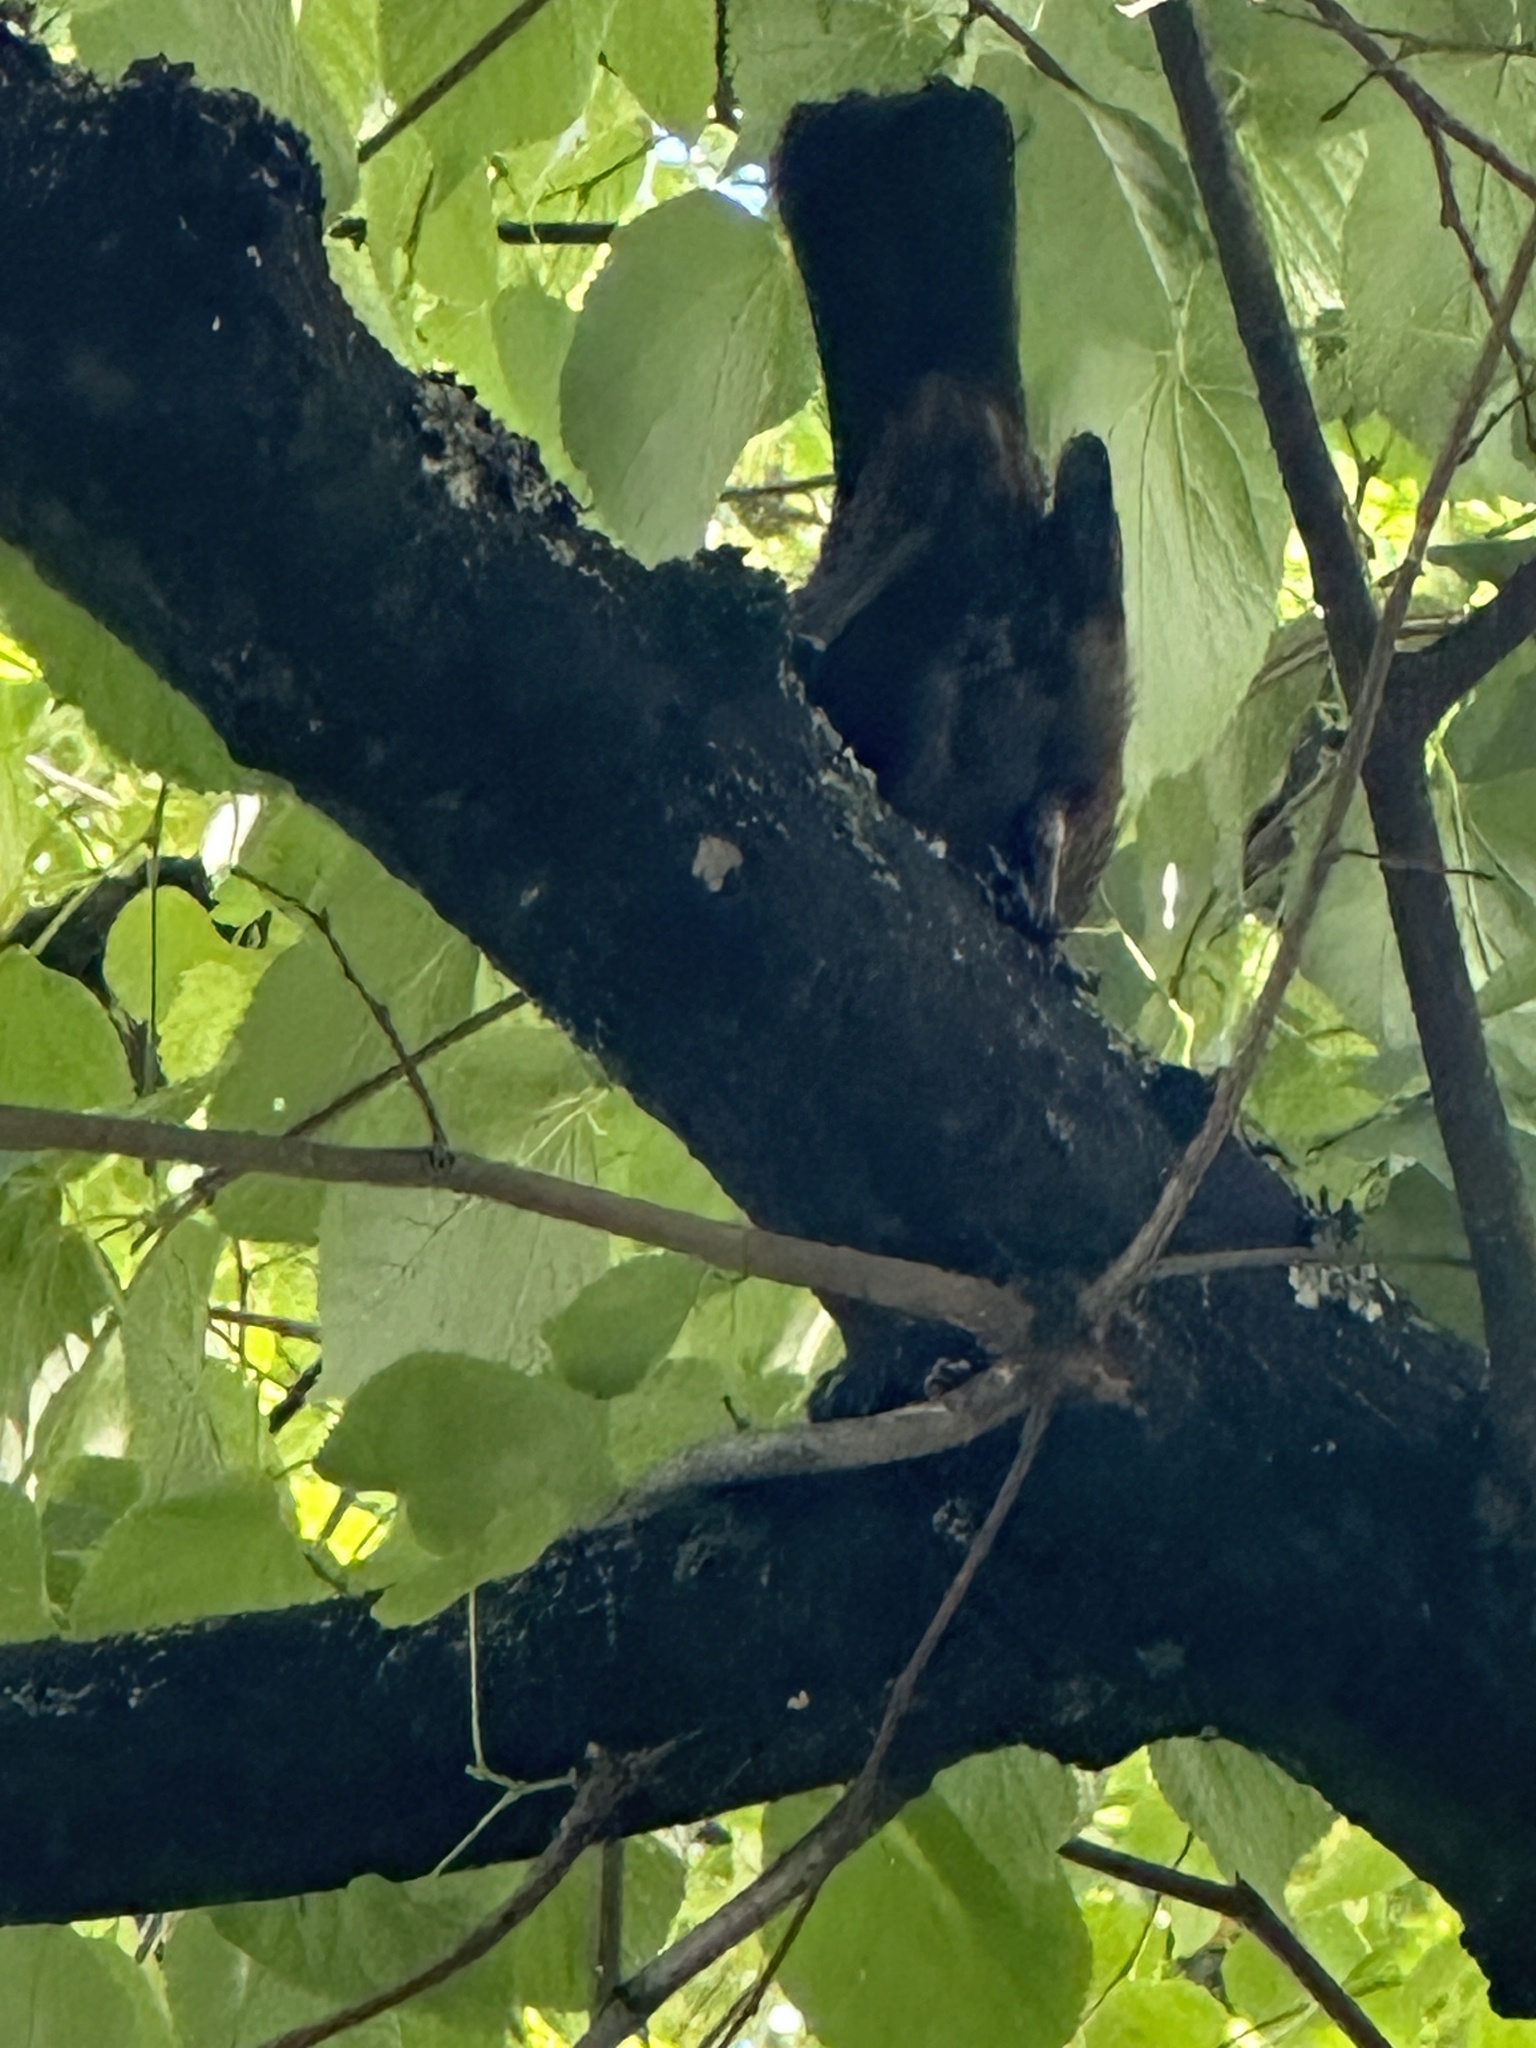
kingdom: Animalia
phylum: Chordata
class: Aves
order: Passeriformes
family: Turdidae
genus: Turdus
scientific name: Turdus merula
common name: Common blackbird
